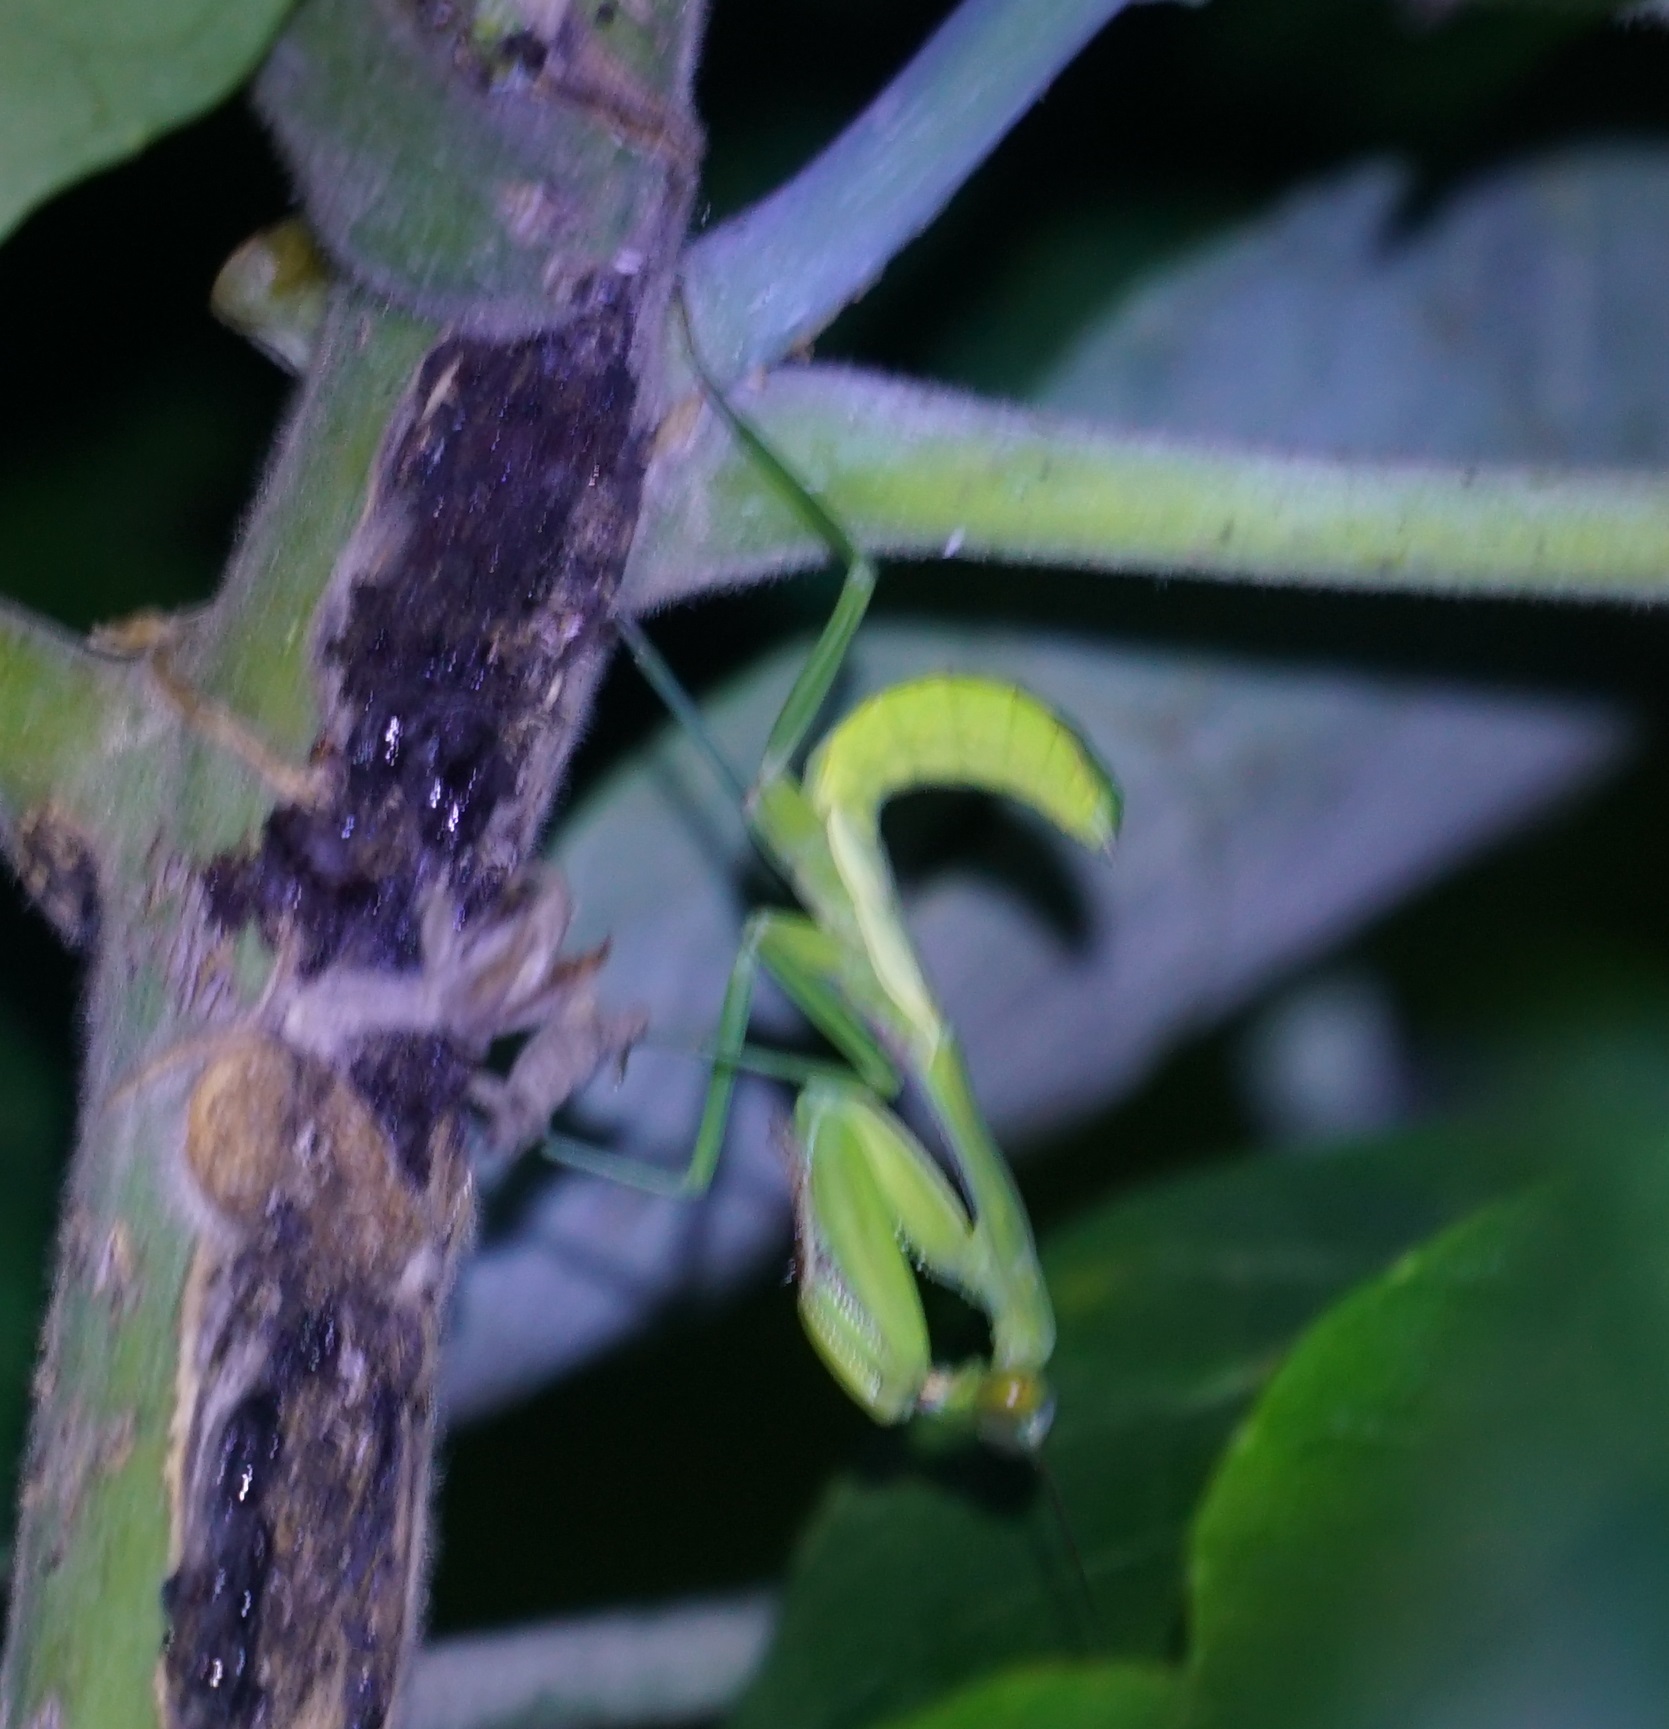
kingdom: Animalia
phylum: Arthropoda
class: Insecta
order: Mantodea
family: Mantidae
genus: Hierodula
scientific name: Hierodula majuscula
